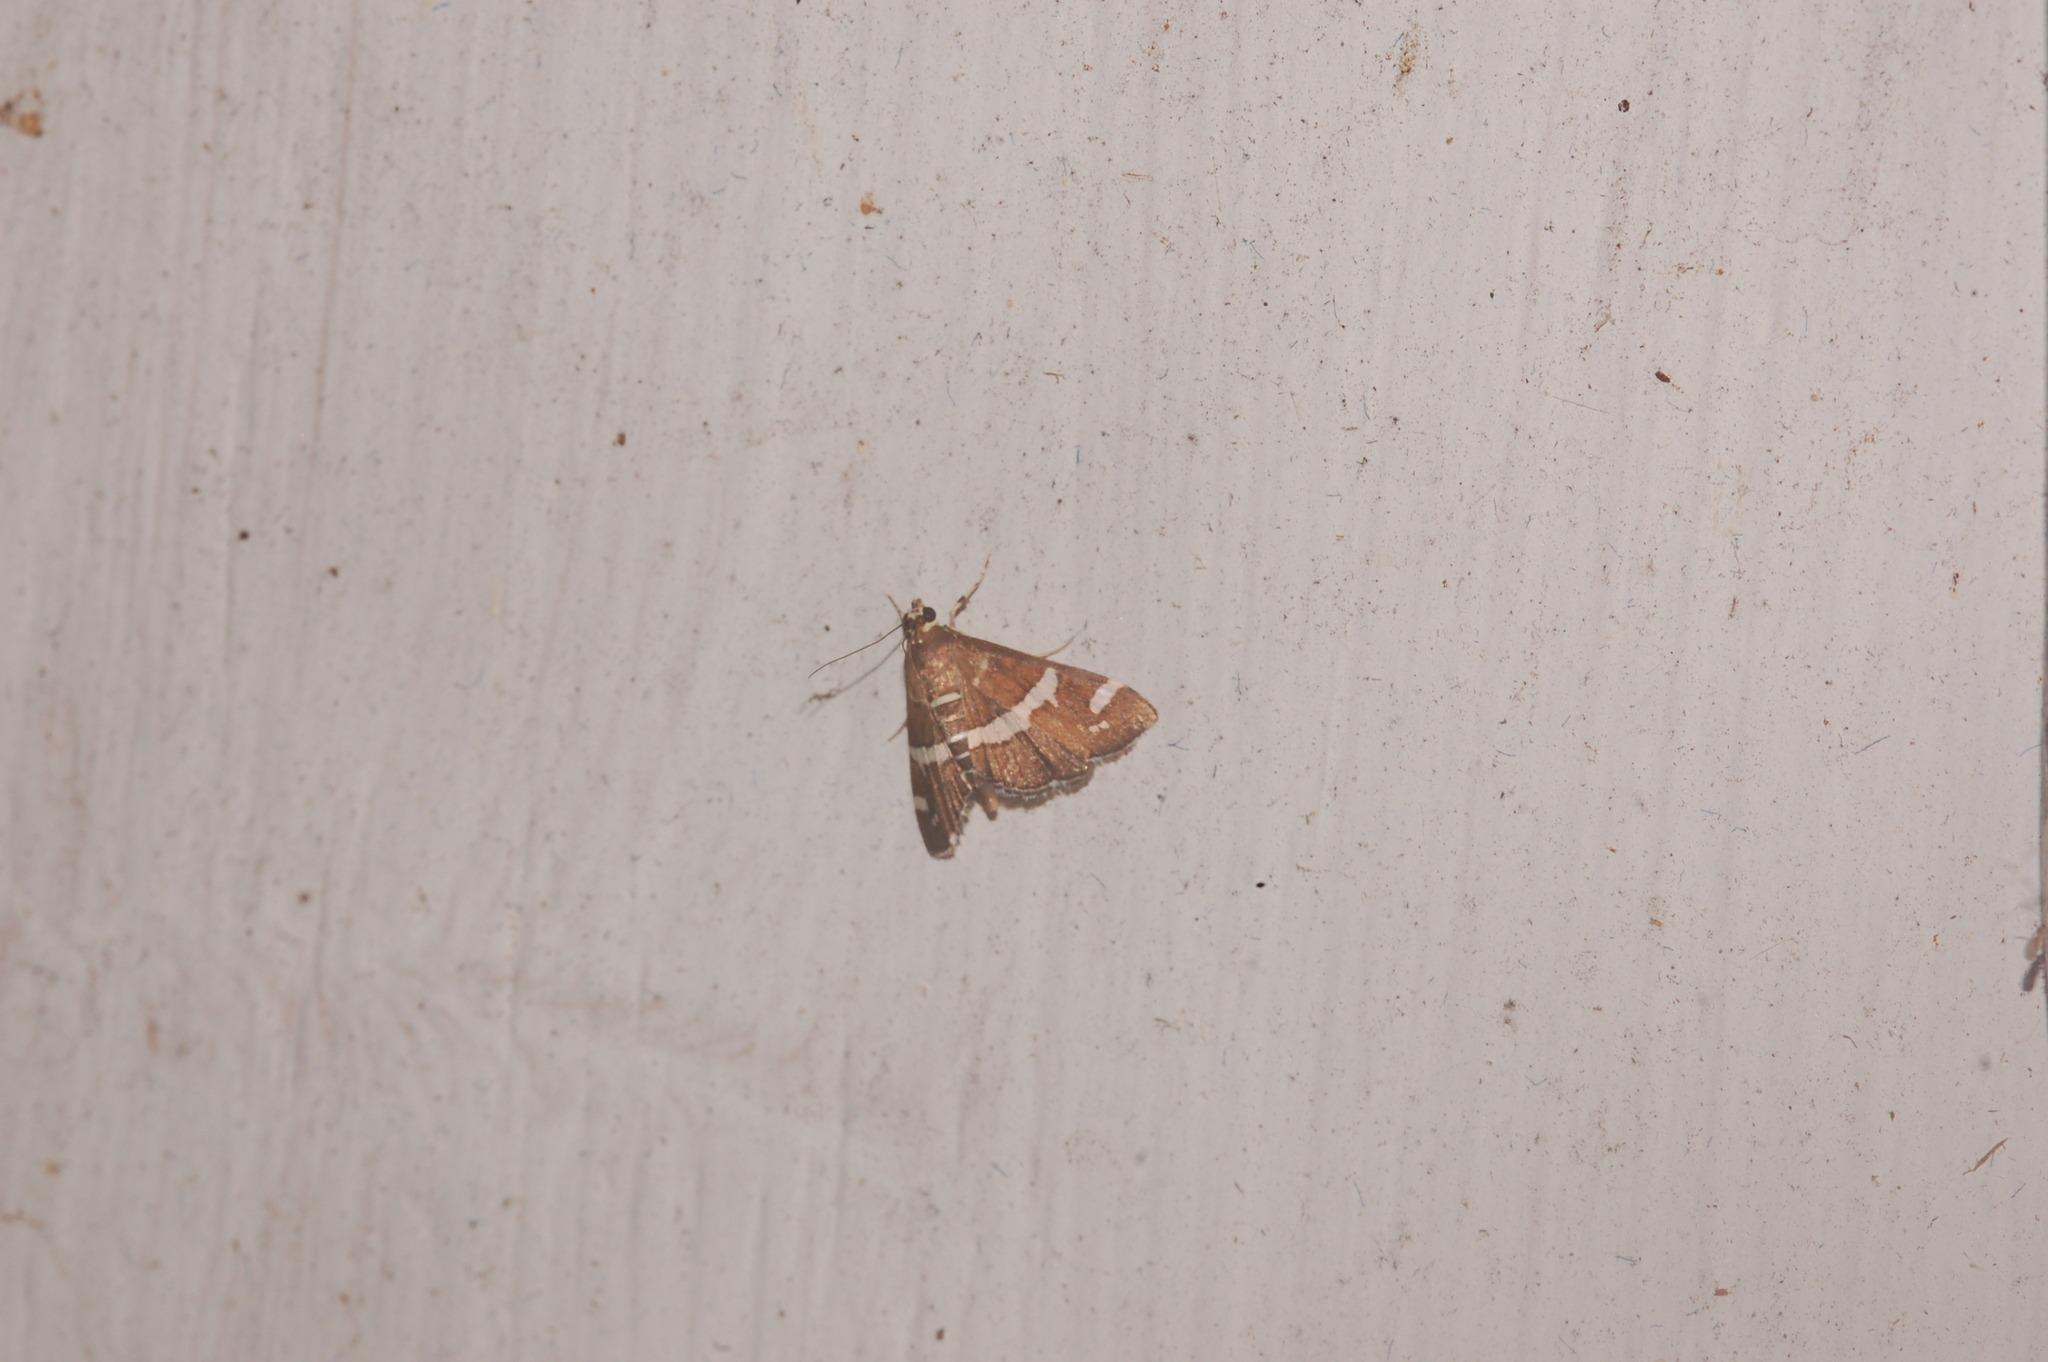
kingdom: Animalia
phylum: Arthropoda
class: Insecta
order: Lepidoptera
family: Crambidae
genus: Spoladea
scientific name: Spoladea recurvalis
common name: Beet webworm moth
